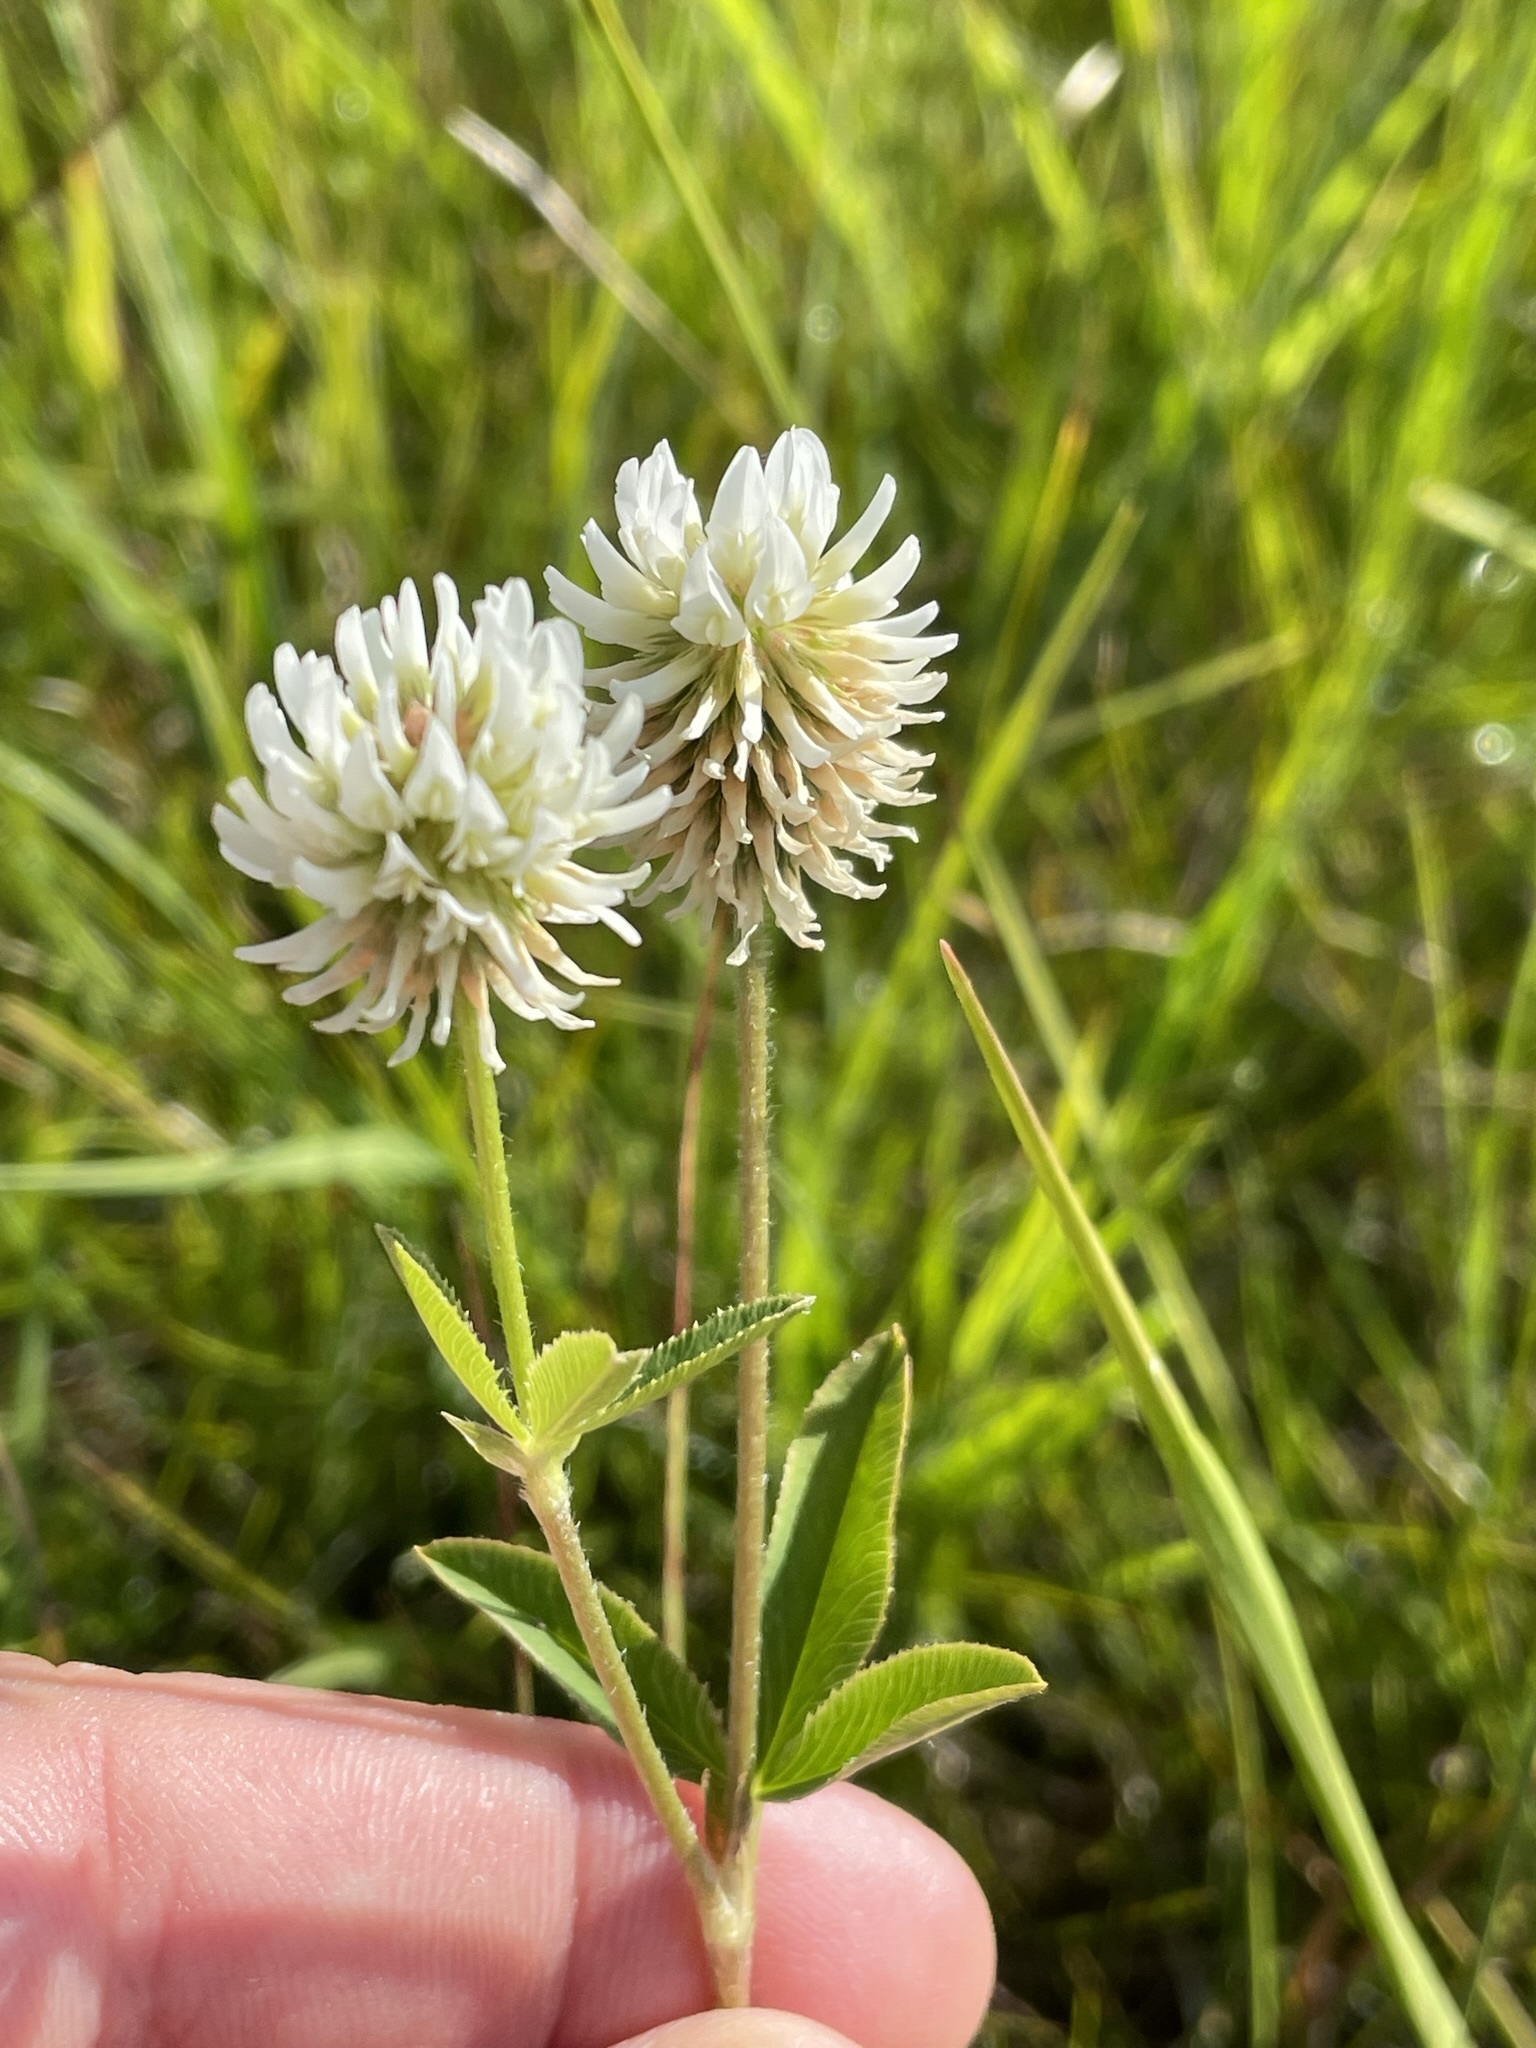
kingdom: Plantae
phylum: Tracheophyta
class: Magnoliopsida
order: Fabales
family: Fabaceae
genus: Trifolium
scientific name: Trifolium montanum
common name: Mountain clover
